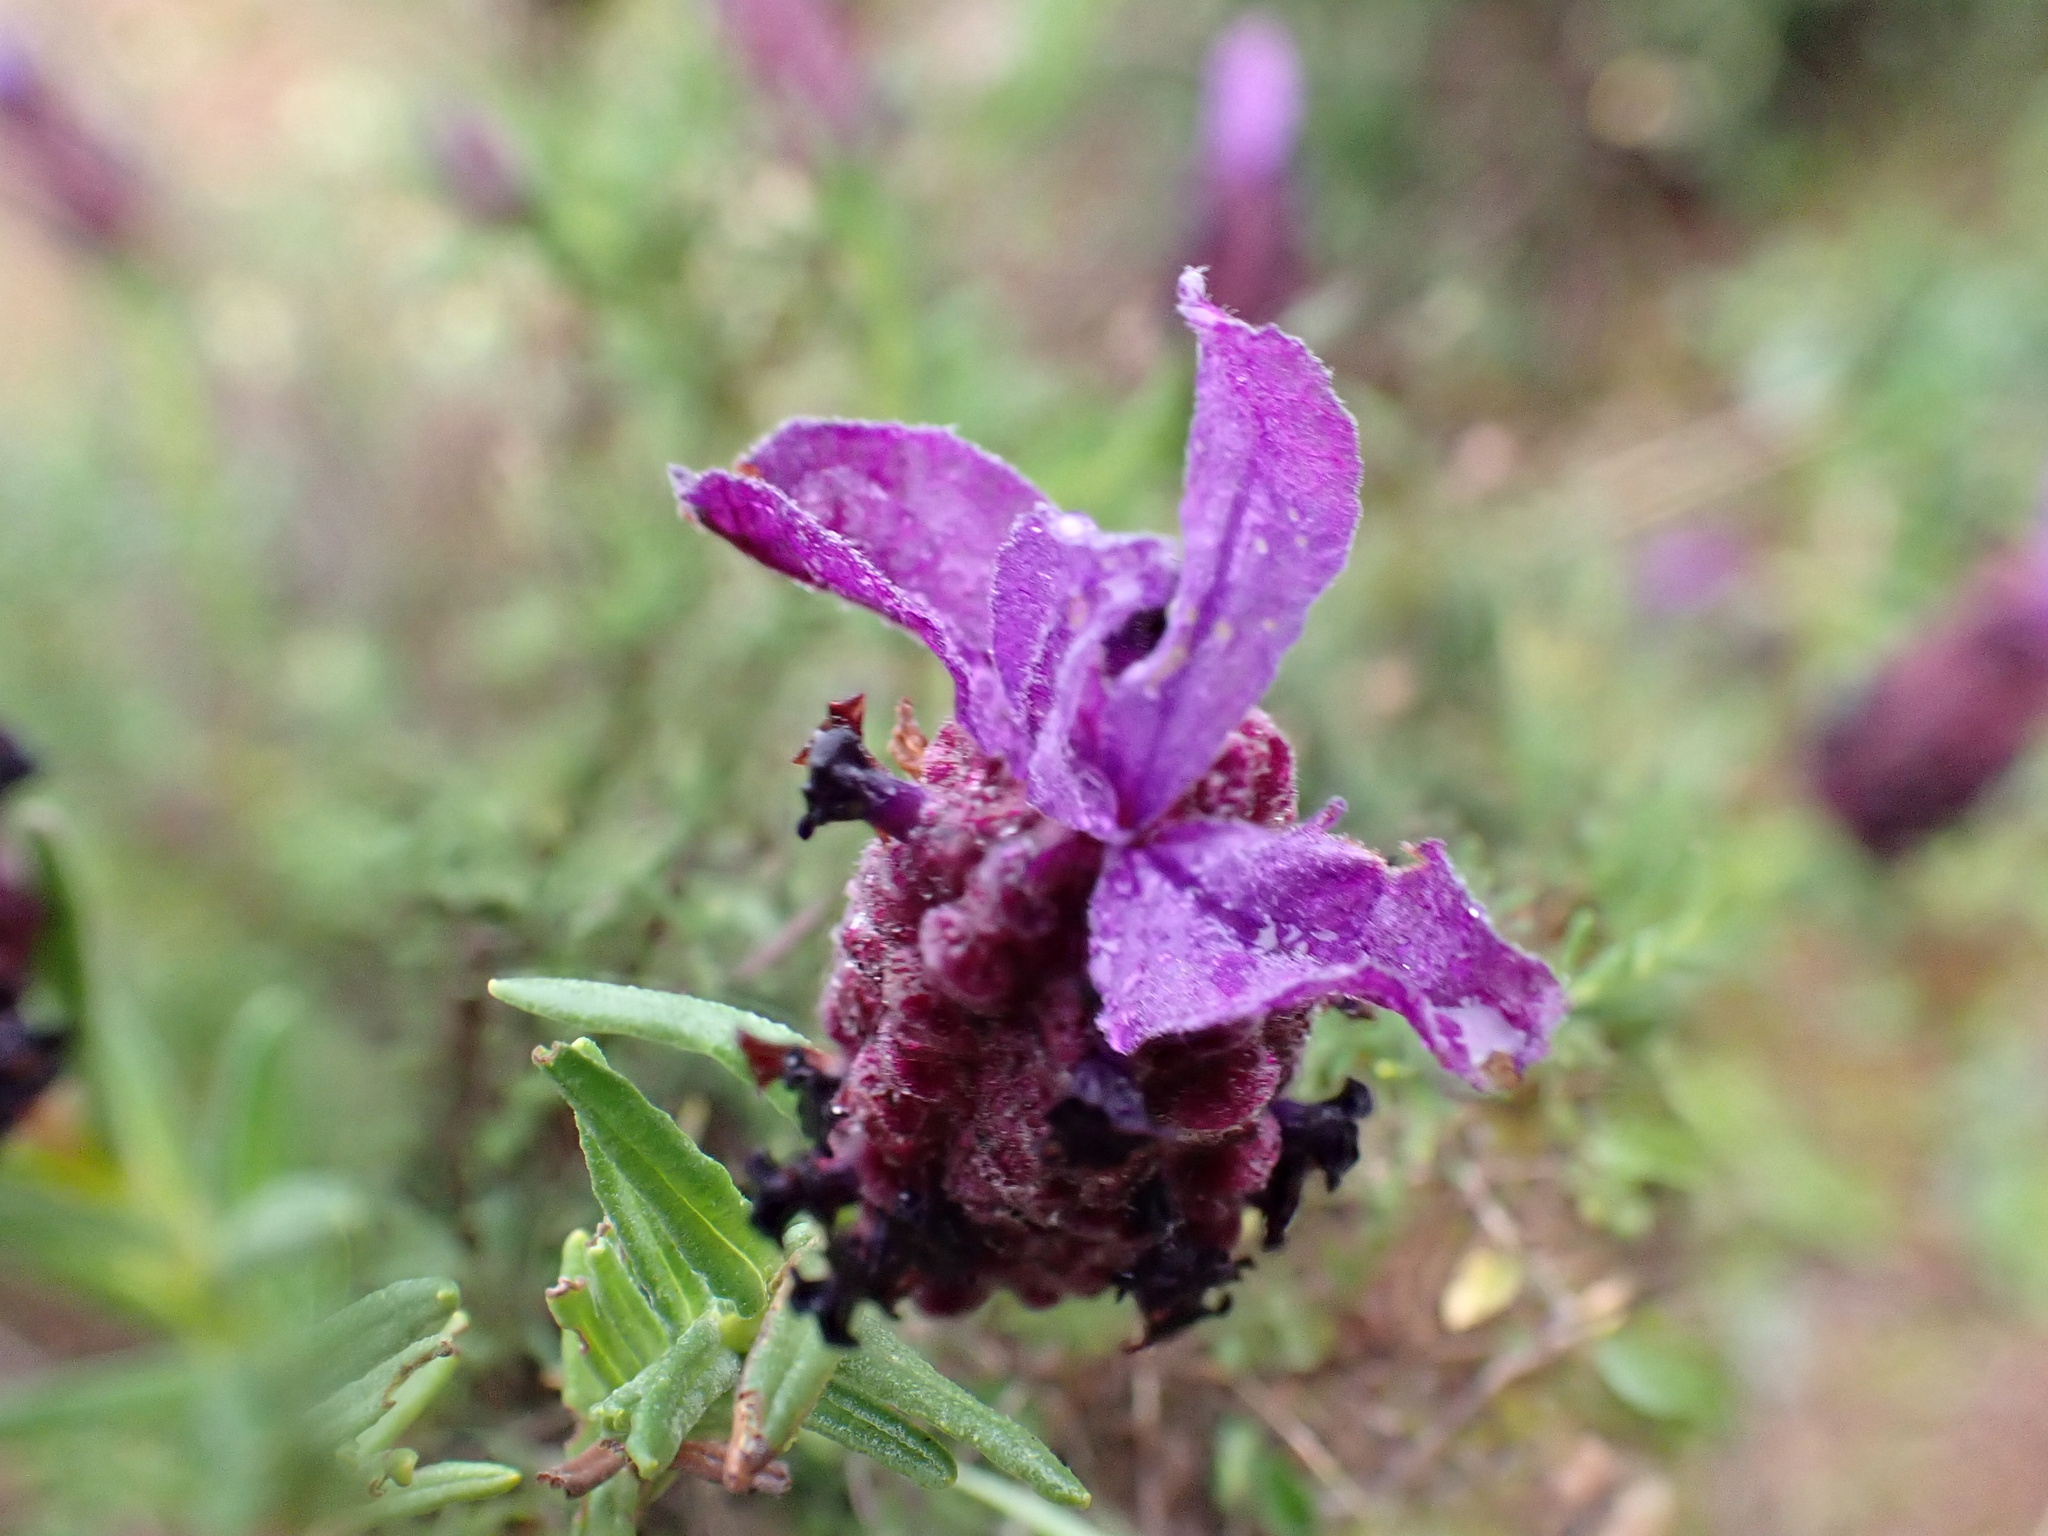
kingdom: Plantae
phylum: Tracheophyta
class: Magnoliopsida
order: Lamiales
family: Lamiaceae
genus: Lavandula
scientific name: Lavandula stoechas
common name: French lavender
